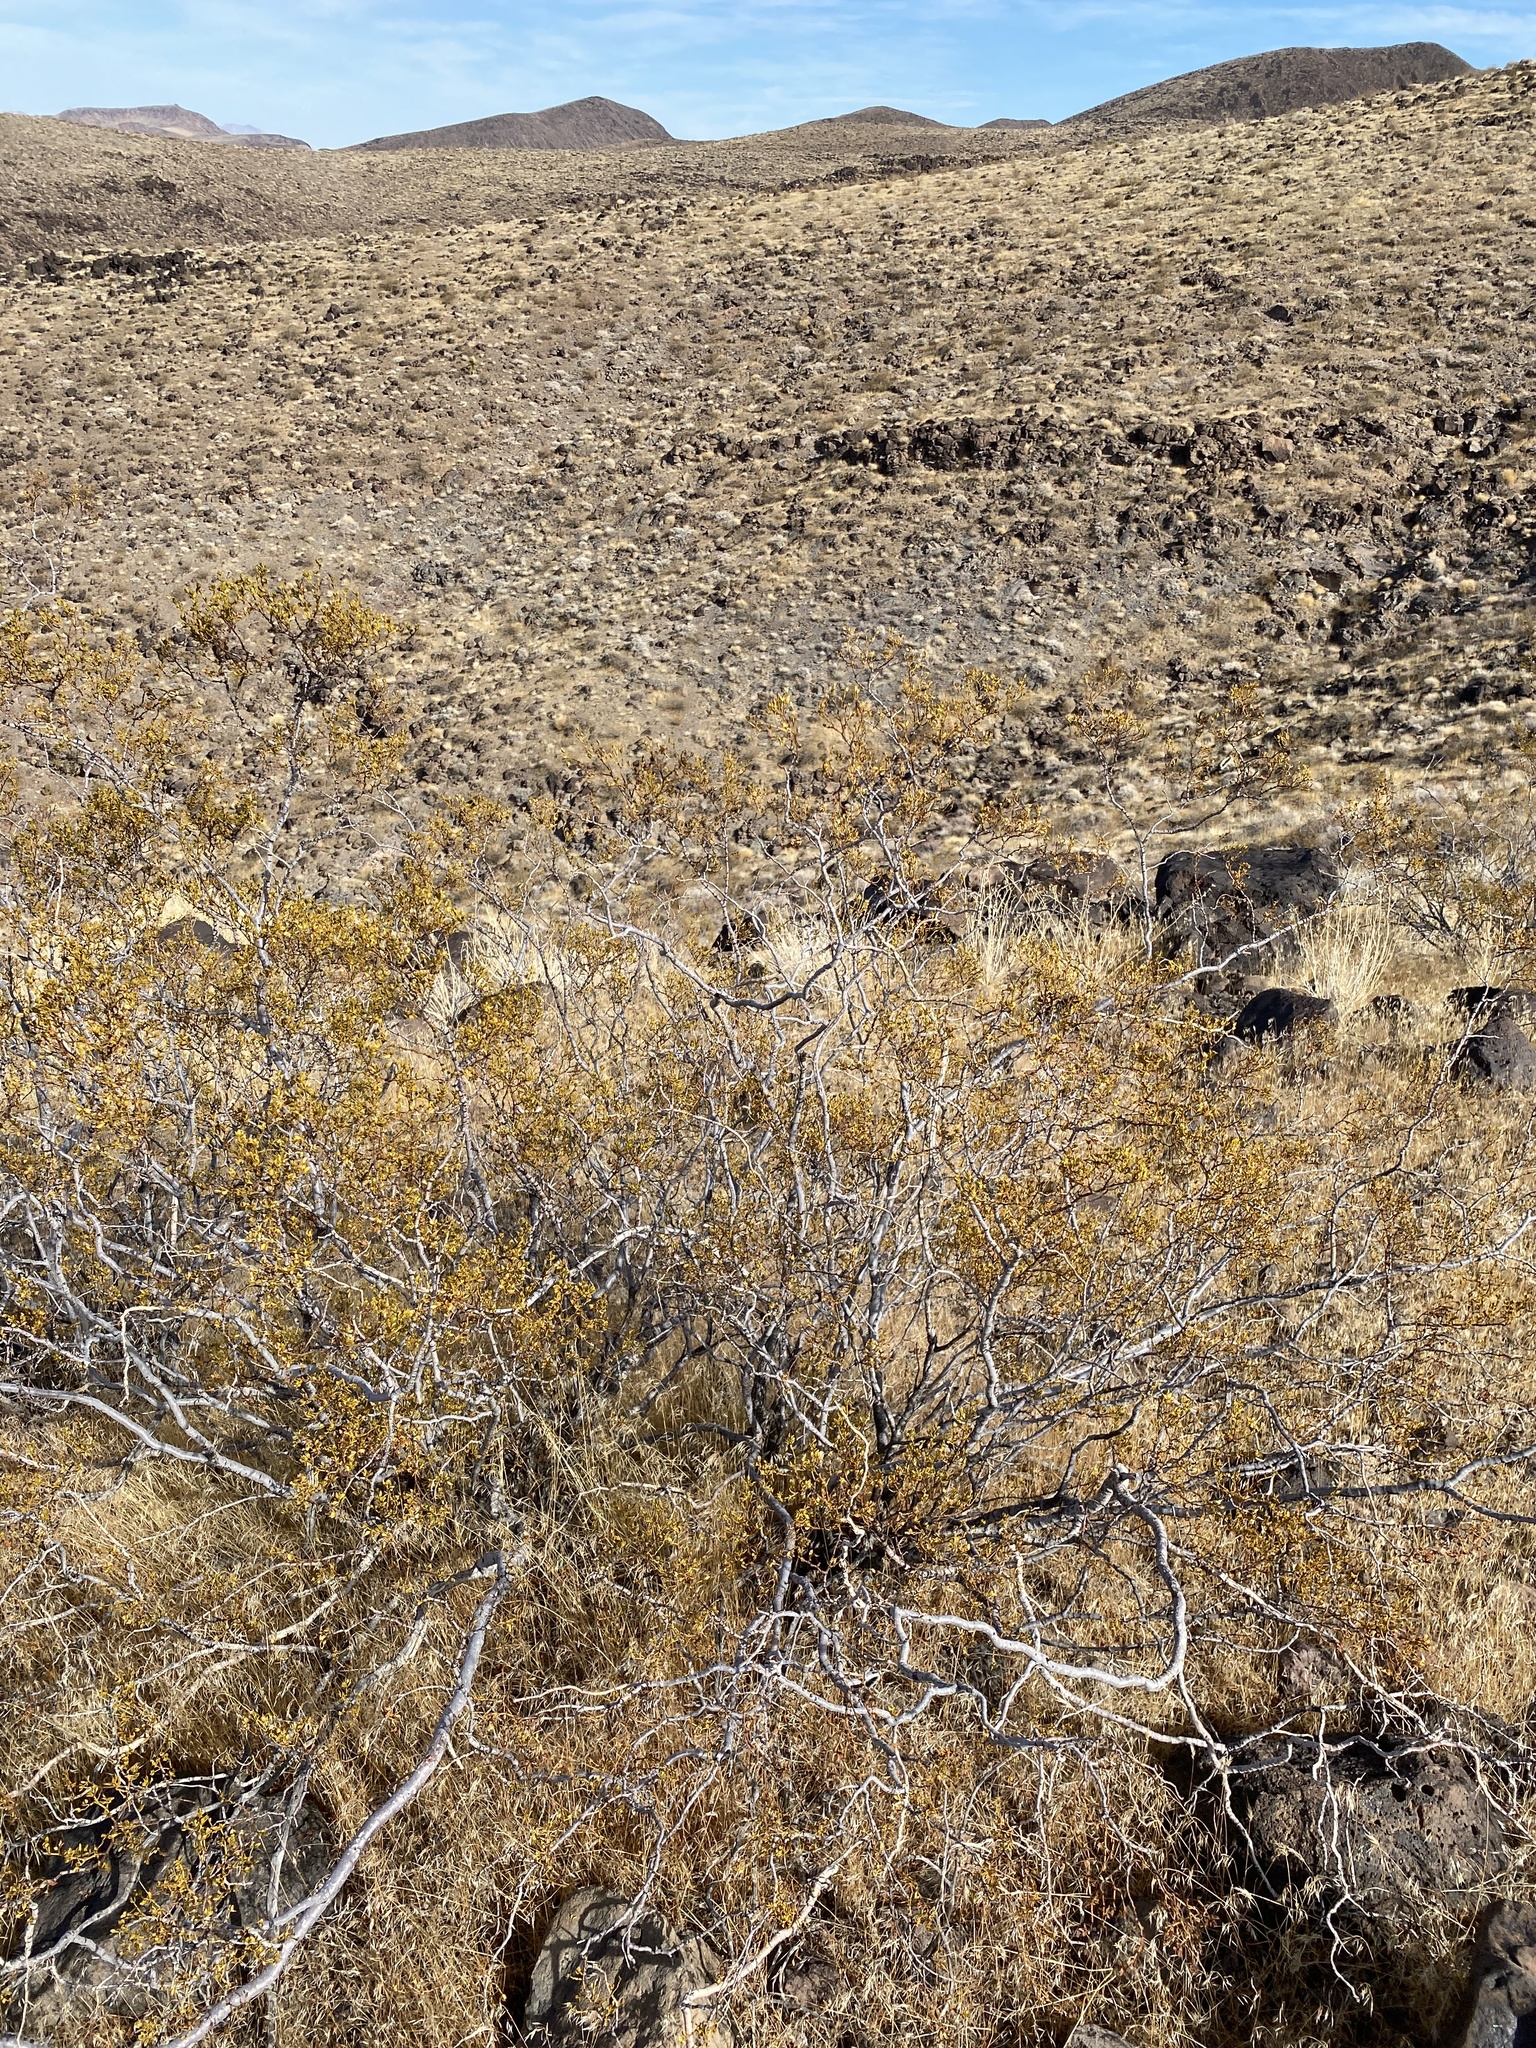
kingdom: Plantae
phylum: Tracheophyta
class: Magnoliopsida
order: Zygophyllales
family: Zygophyllaceae
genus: Larrea
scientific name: Larrea tridentata
